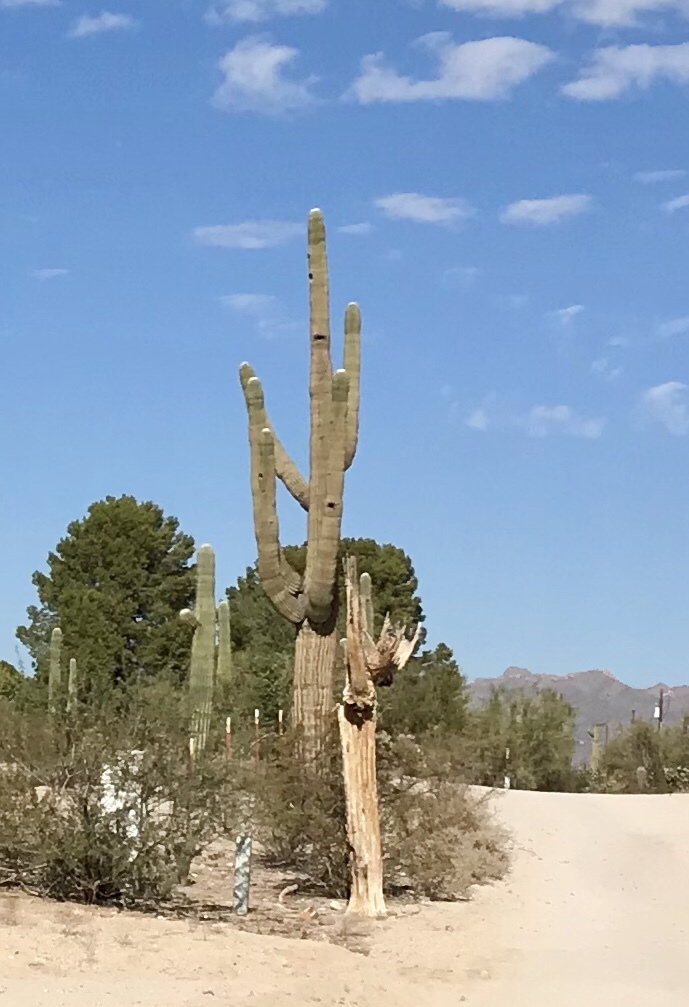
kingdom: Plantae
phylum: Tracheophyta
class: Magnoliopsida
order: Caryophyllales
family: Cactaceae
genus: Carnegiea
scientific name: Carnegiea gigantea
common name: Saguaro
